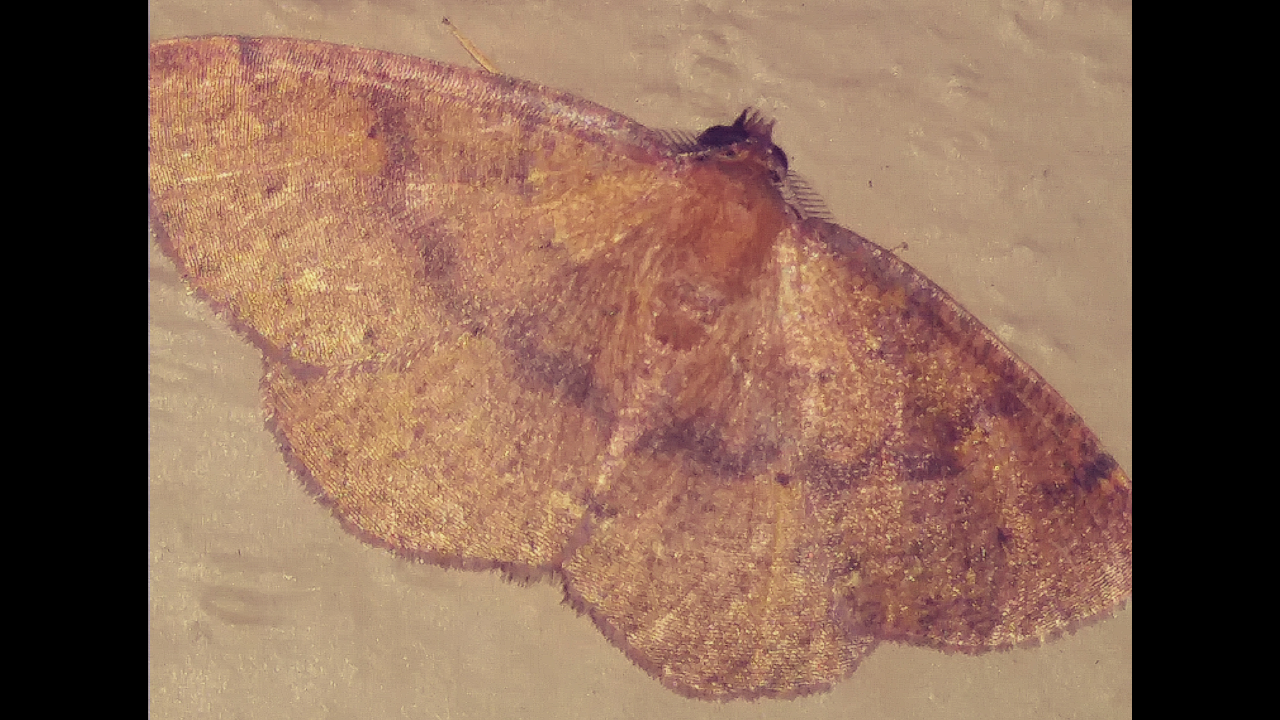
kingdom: Animalia
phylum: Arthropoda
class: Insecta
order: Lepidoptera
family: Geometridae
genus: Ilexia
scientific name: Ilexia intractata
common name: Black-dotted ruddy moth
